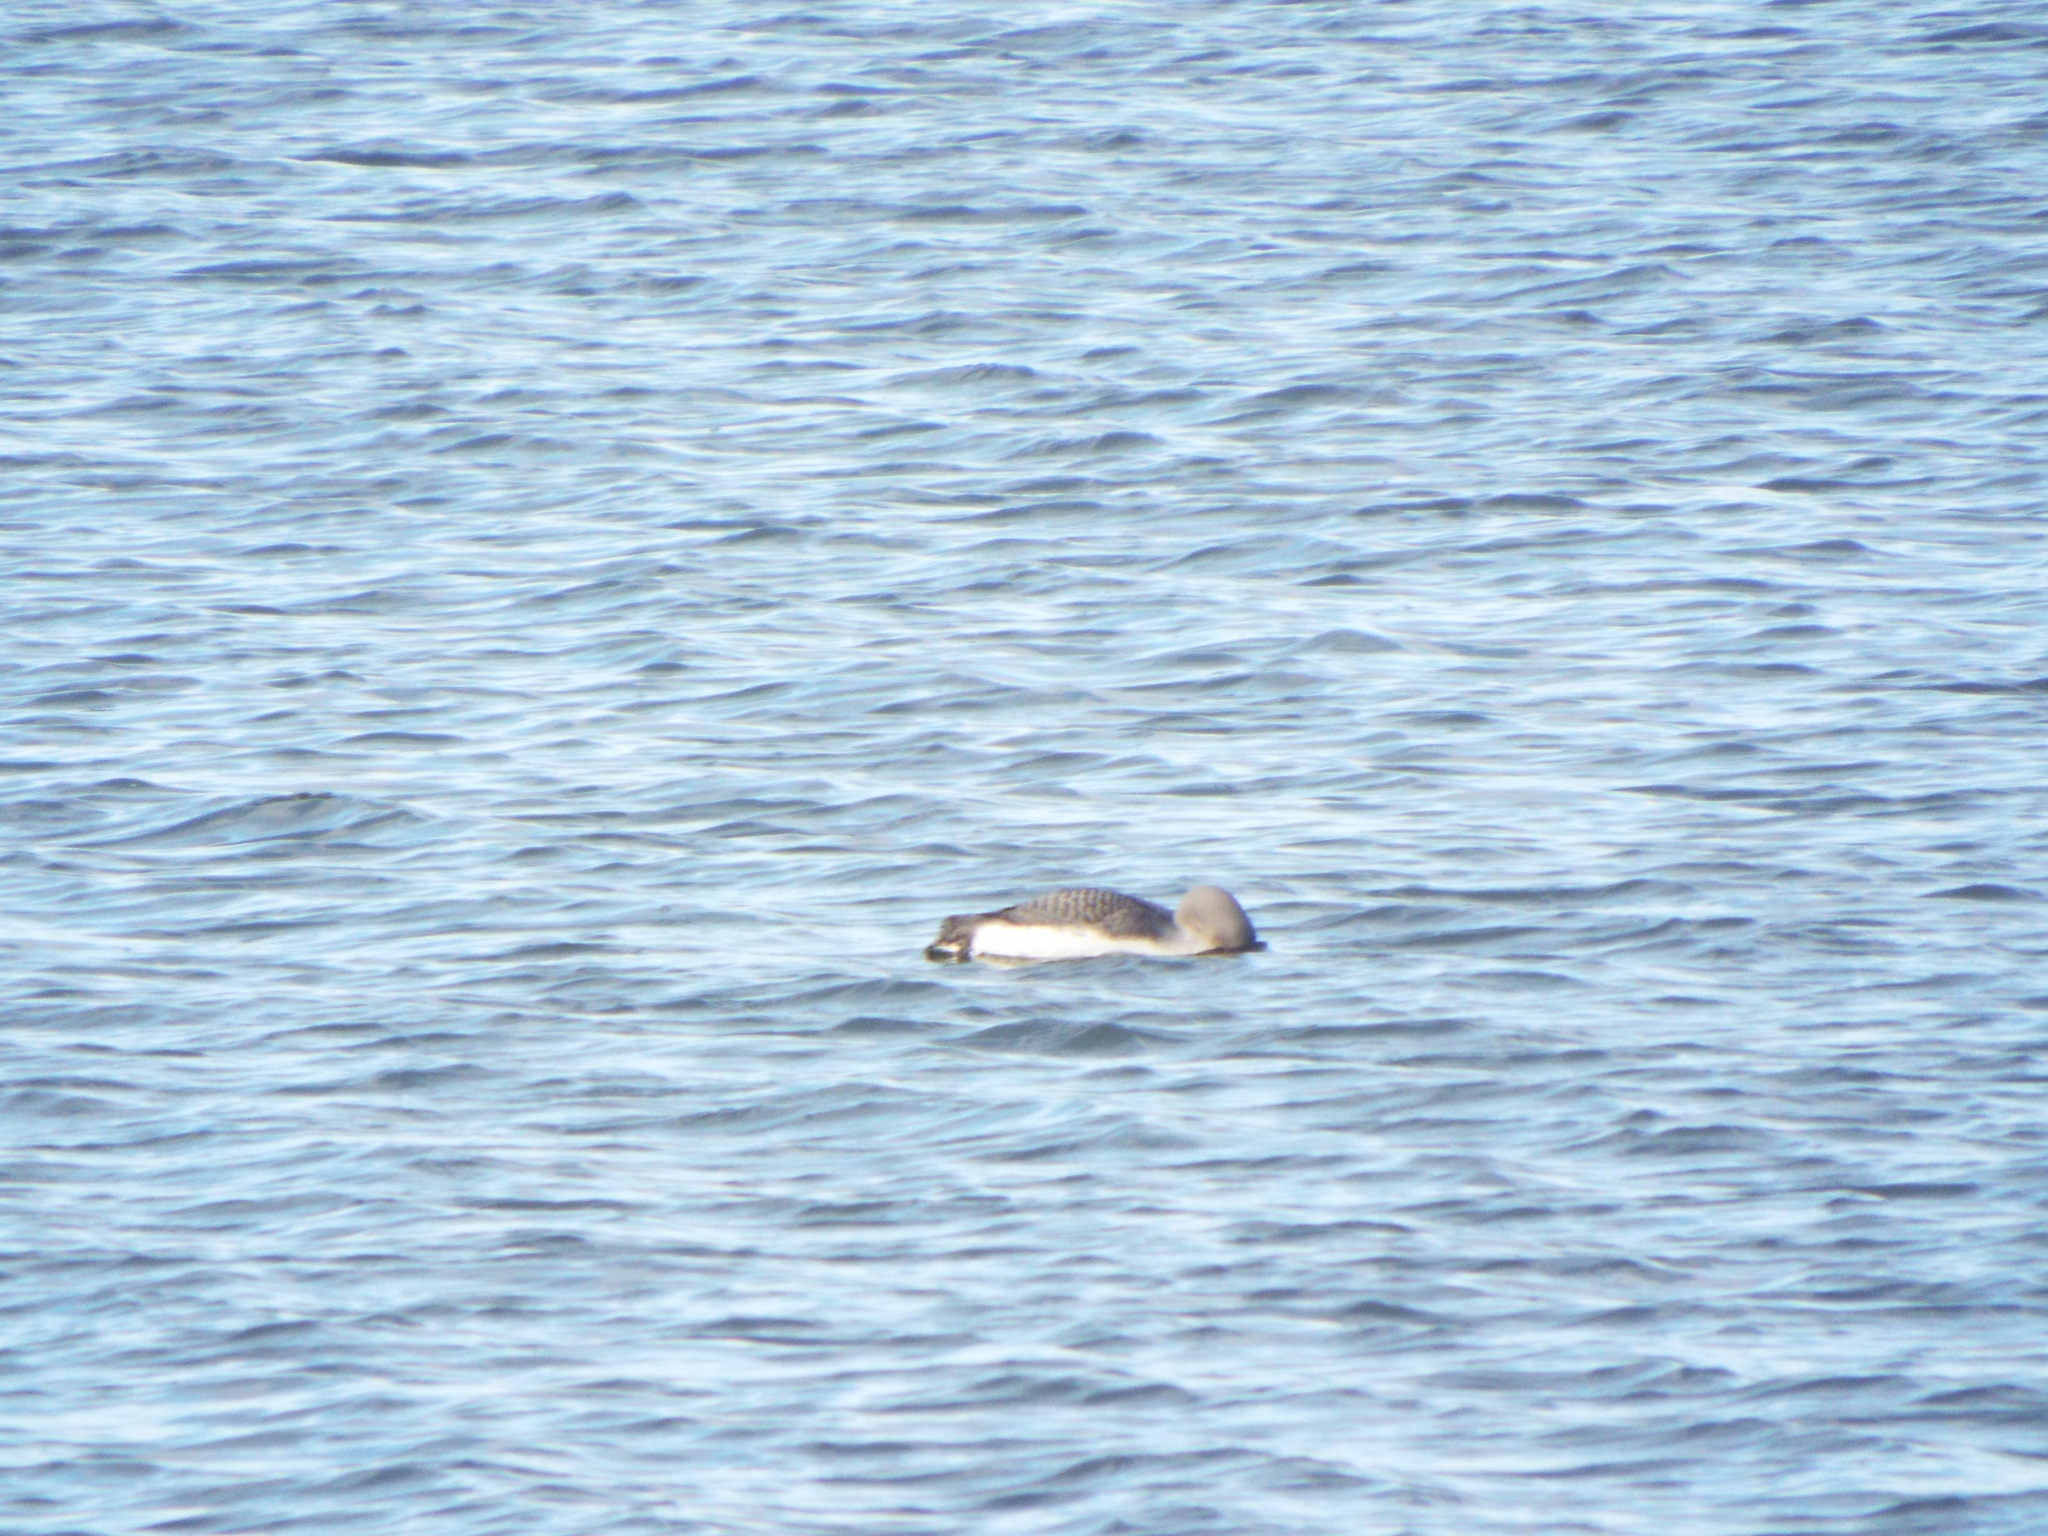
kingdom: Animalia
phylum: Chordata
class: Aves
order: Gaviiformes
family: Gaviidae
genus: Gavia
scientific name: Gavia arctica
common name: Black-throated loon
